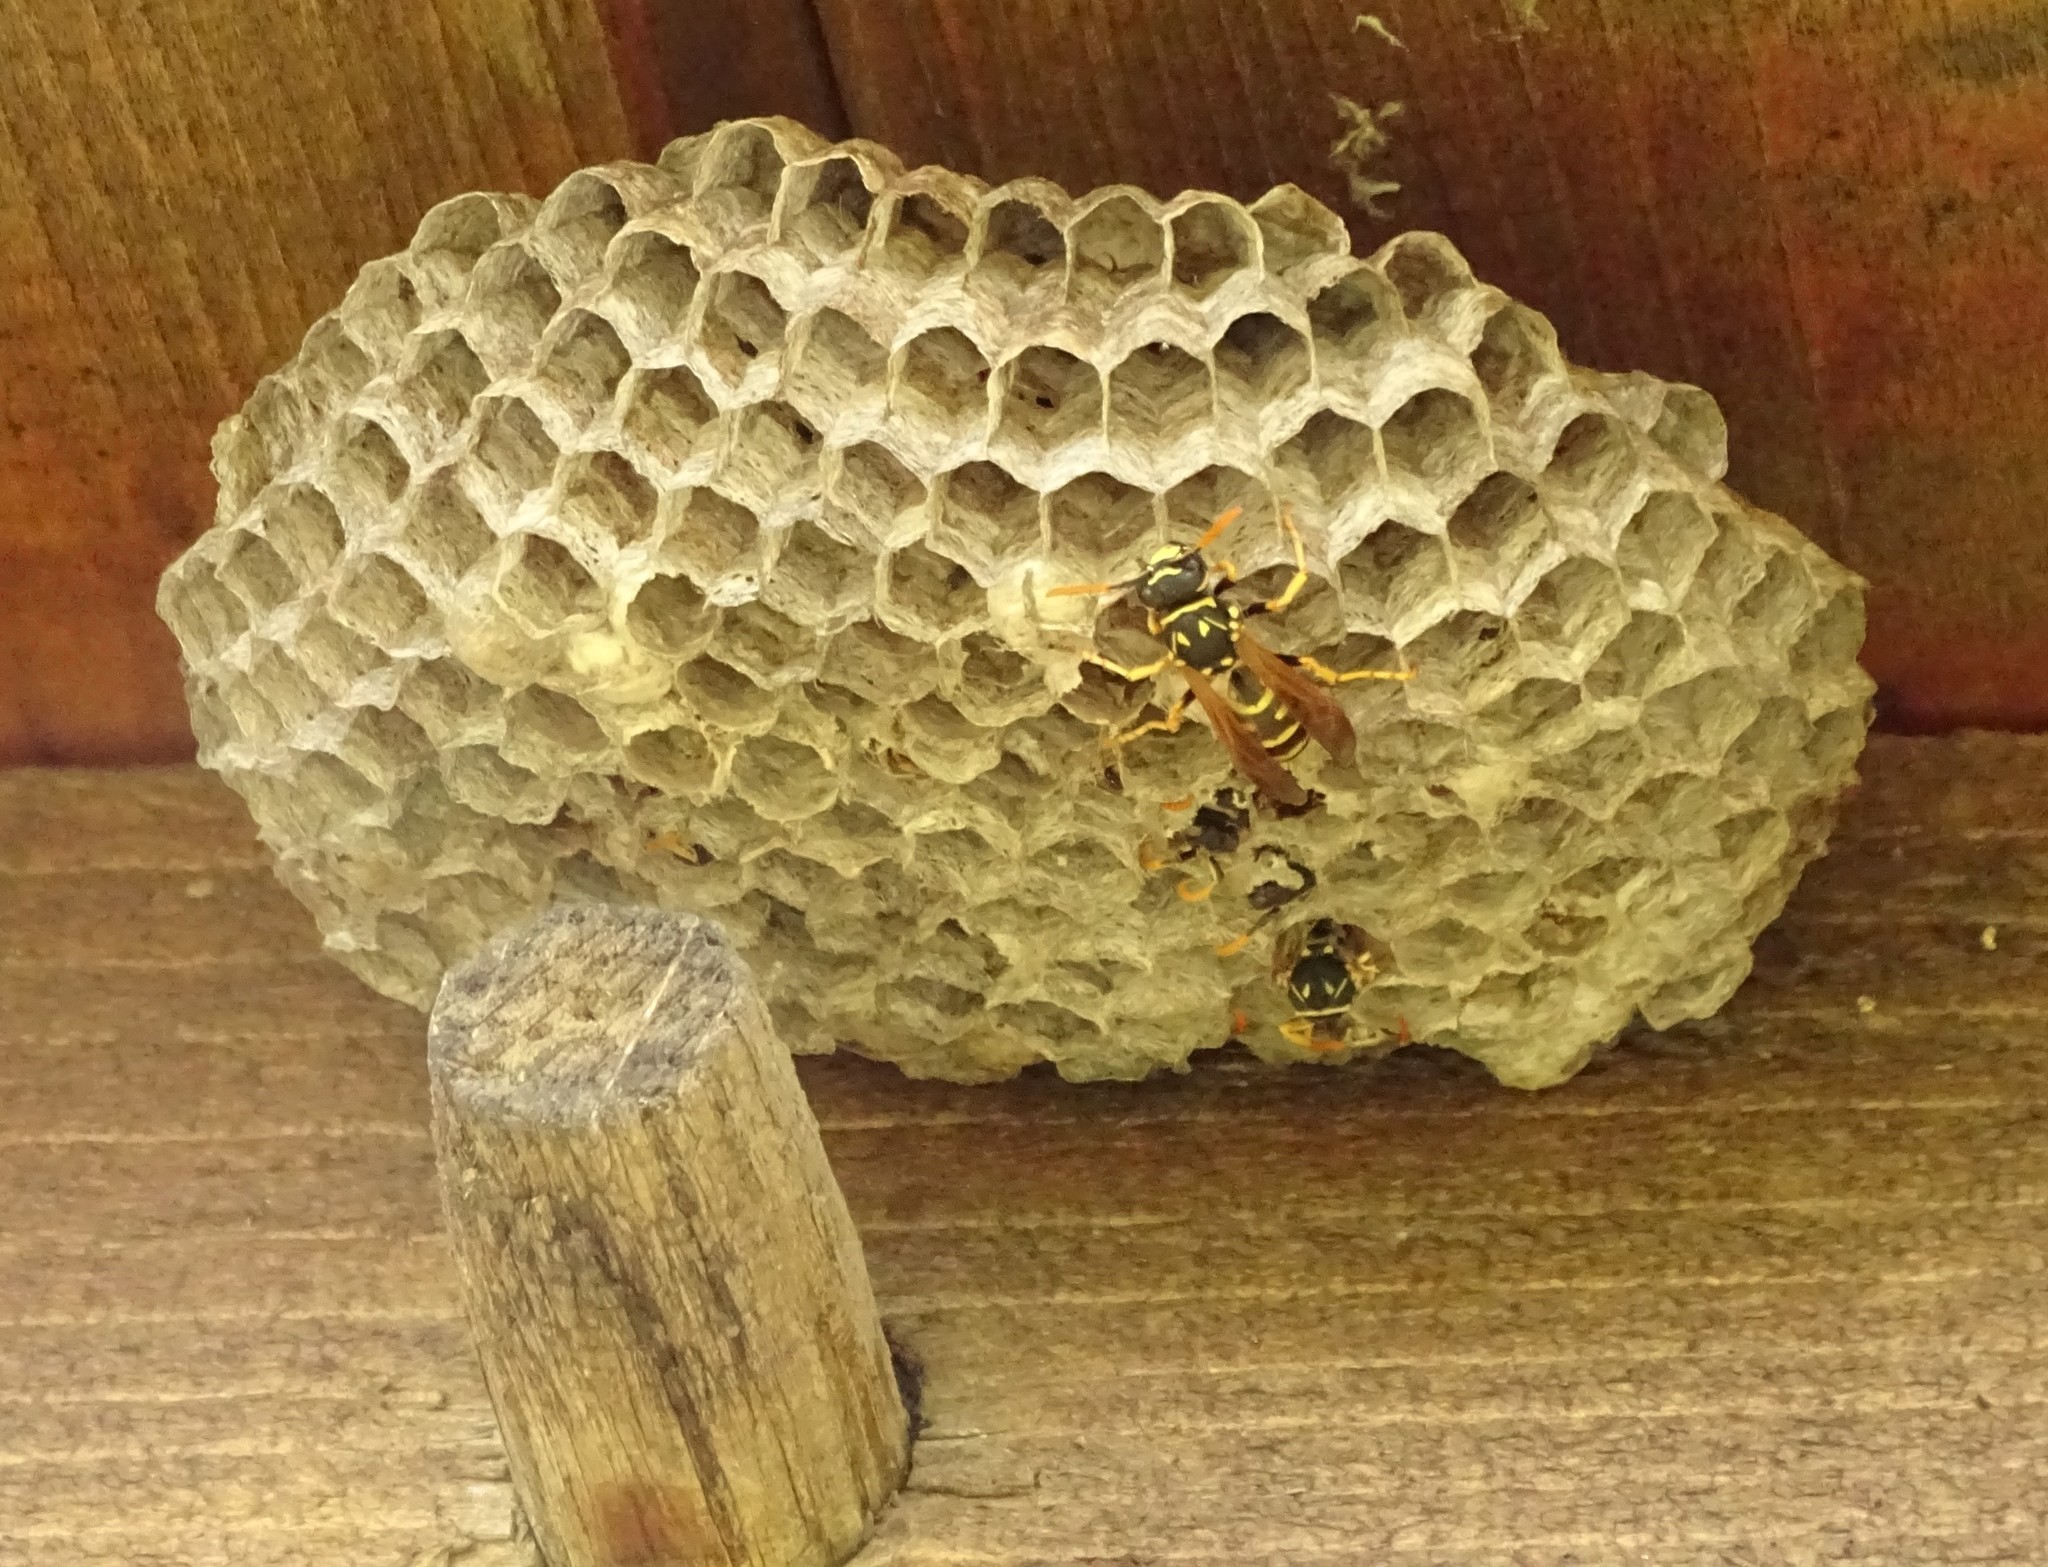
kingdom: Animalia
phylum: Arthropoda
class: Insecta
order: Hymenoptera
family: Eumenidae
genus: Polistes
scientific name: Polistes dominula
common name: Paper wasp
